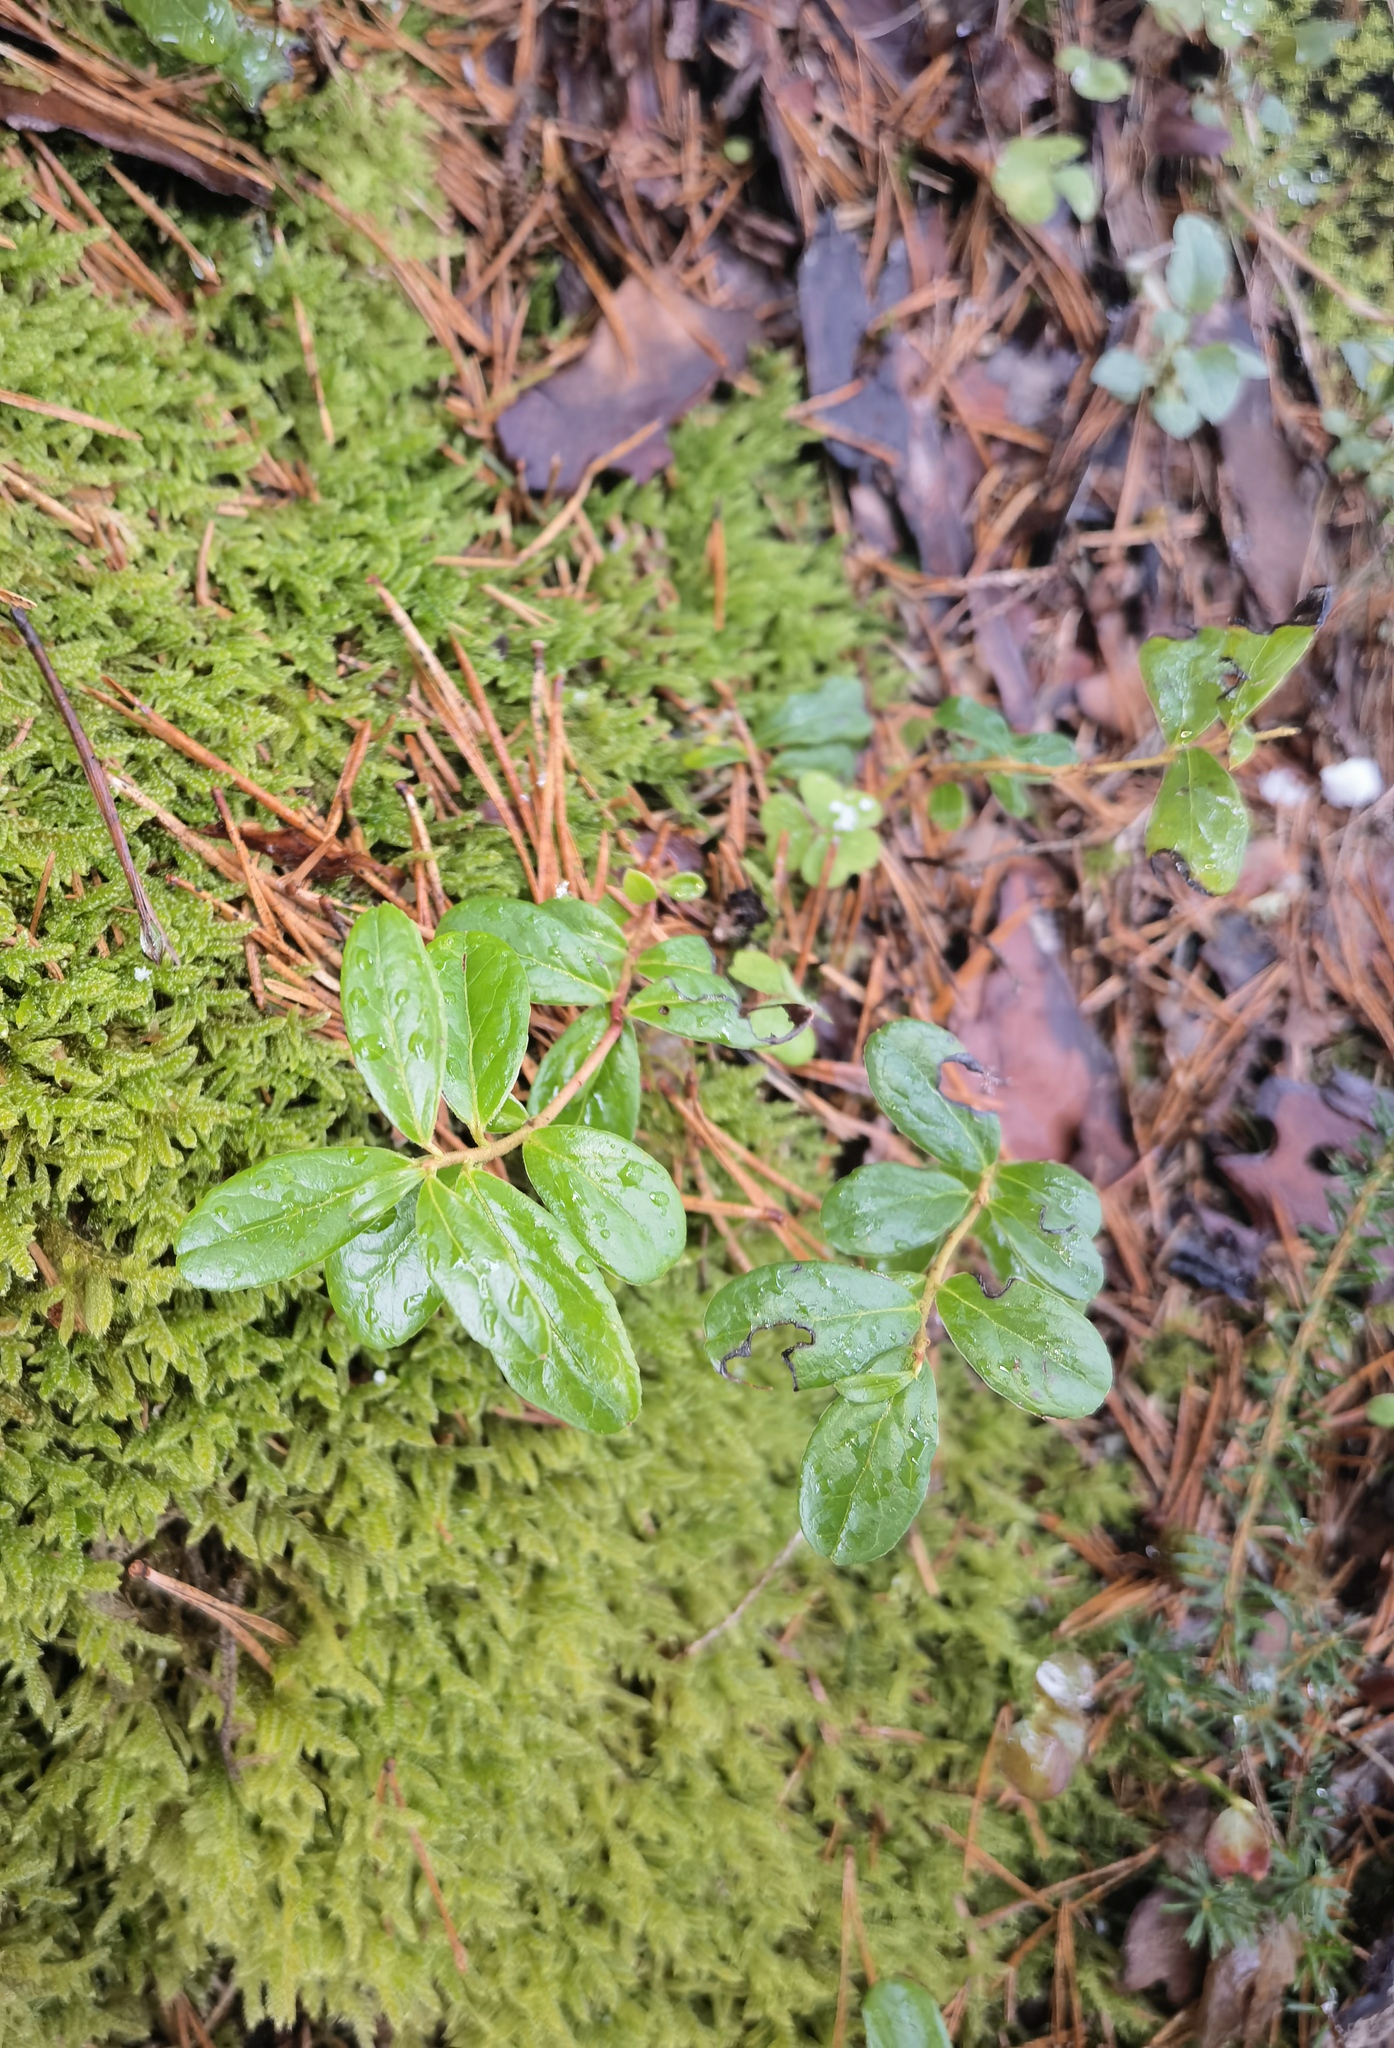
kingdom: Plantae
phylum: Tracheophyta
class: Magnoliopsida
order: Ericales
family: Ericaceae
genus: Vaccinium
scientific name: Vaccinium vitis-idaea
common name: Cowberry
